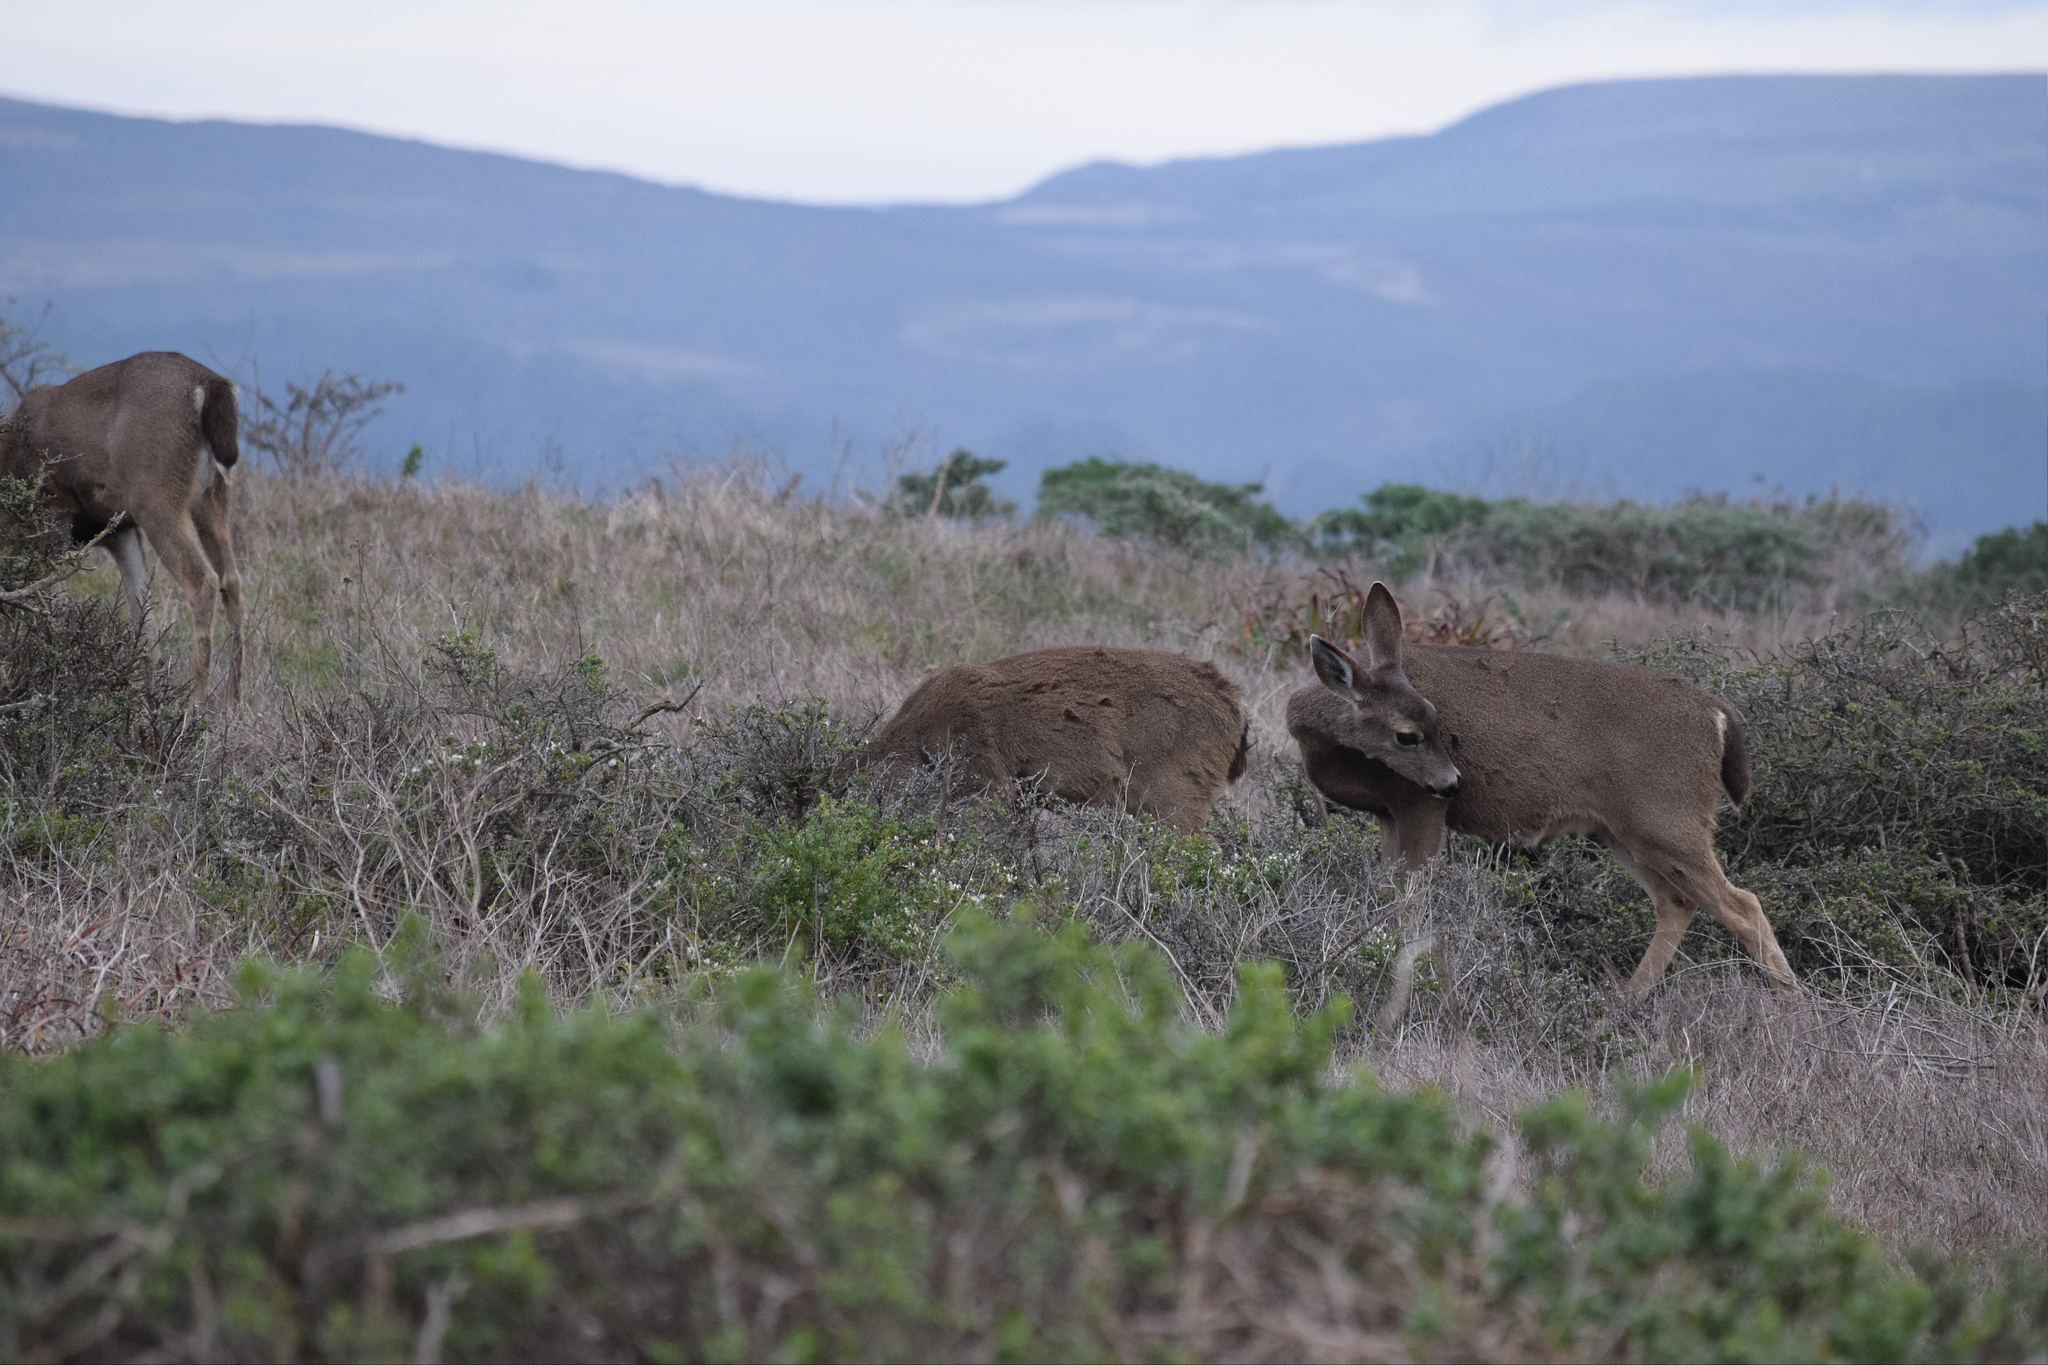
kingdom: Animalia
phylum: Chordata
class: Mammalia
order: Artiodactyla
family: Cervidae
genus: Odocoileus
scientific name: Odocoileus hemionus
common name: Mule deer
